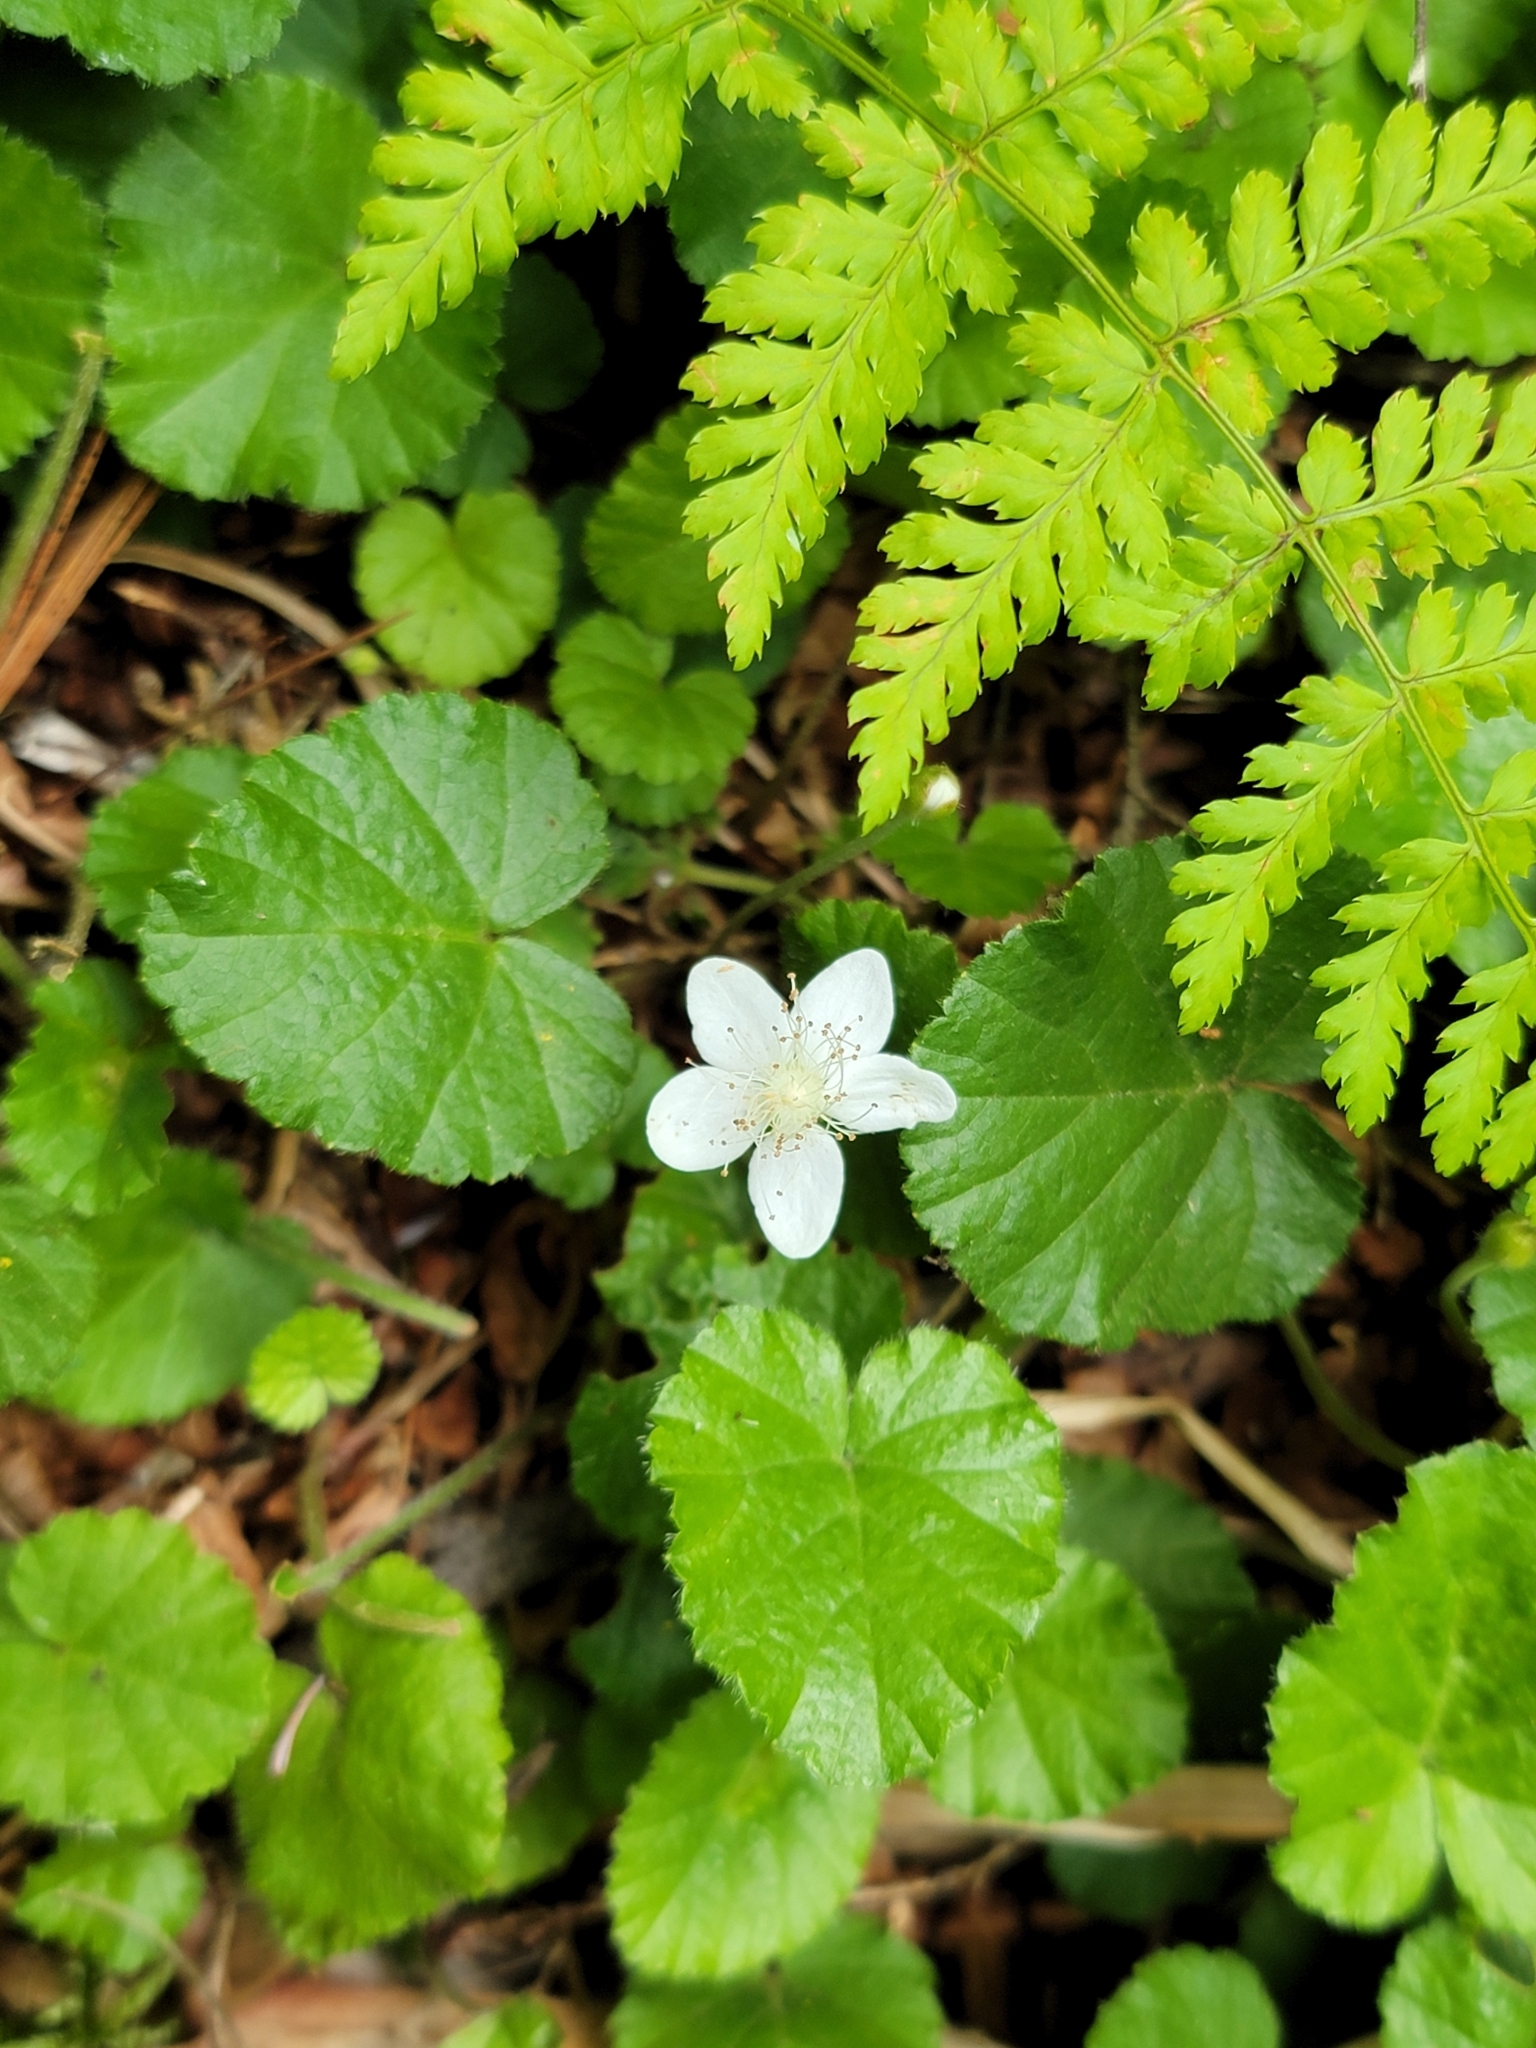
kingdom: Plantae
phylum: Tracheophyta
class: Magnoliopsida
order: Rosales
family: Rosaceae
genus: Dalibarda
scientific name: Dalibarda repens
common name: Dewdrop
